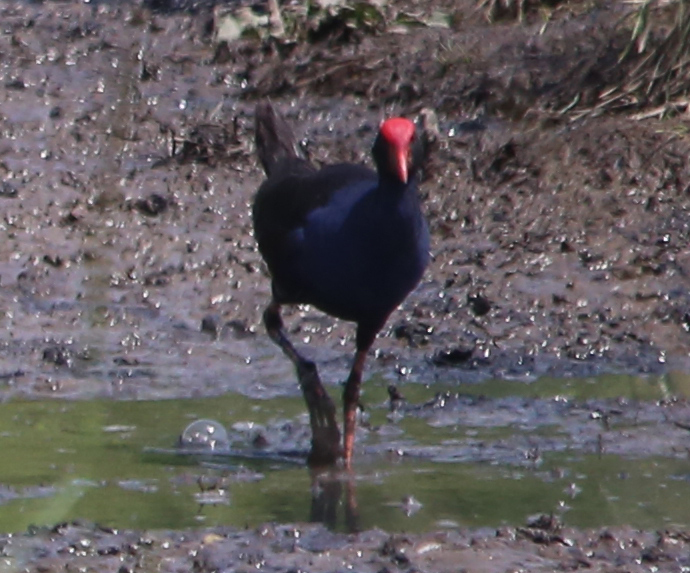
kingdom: Animalia
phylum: Chordata
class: Aves
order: Gruiformes
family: Rallidae
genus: Porphyrio
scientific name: Porphyrio melanotus
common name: Australasian swamphen
